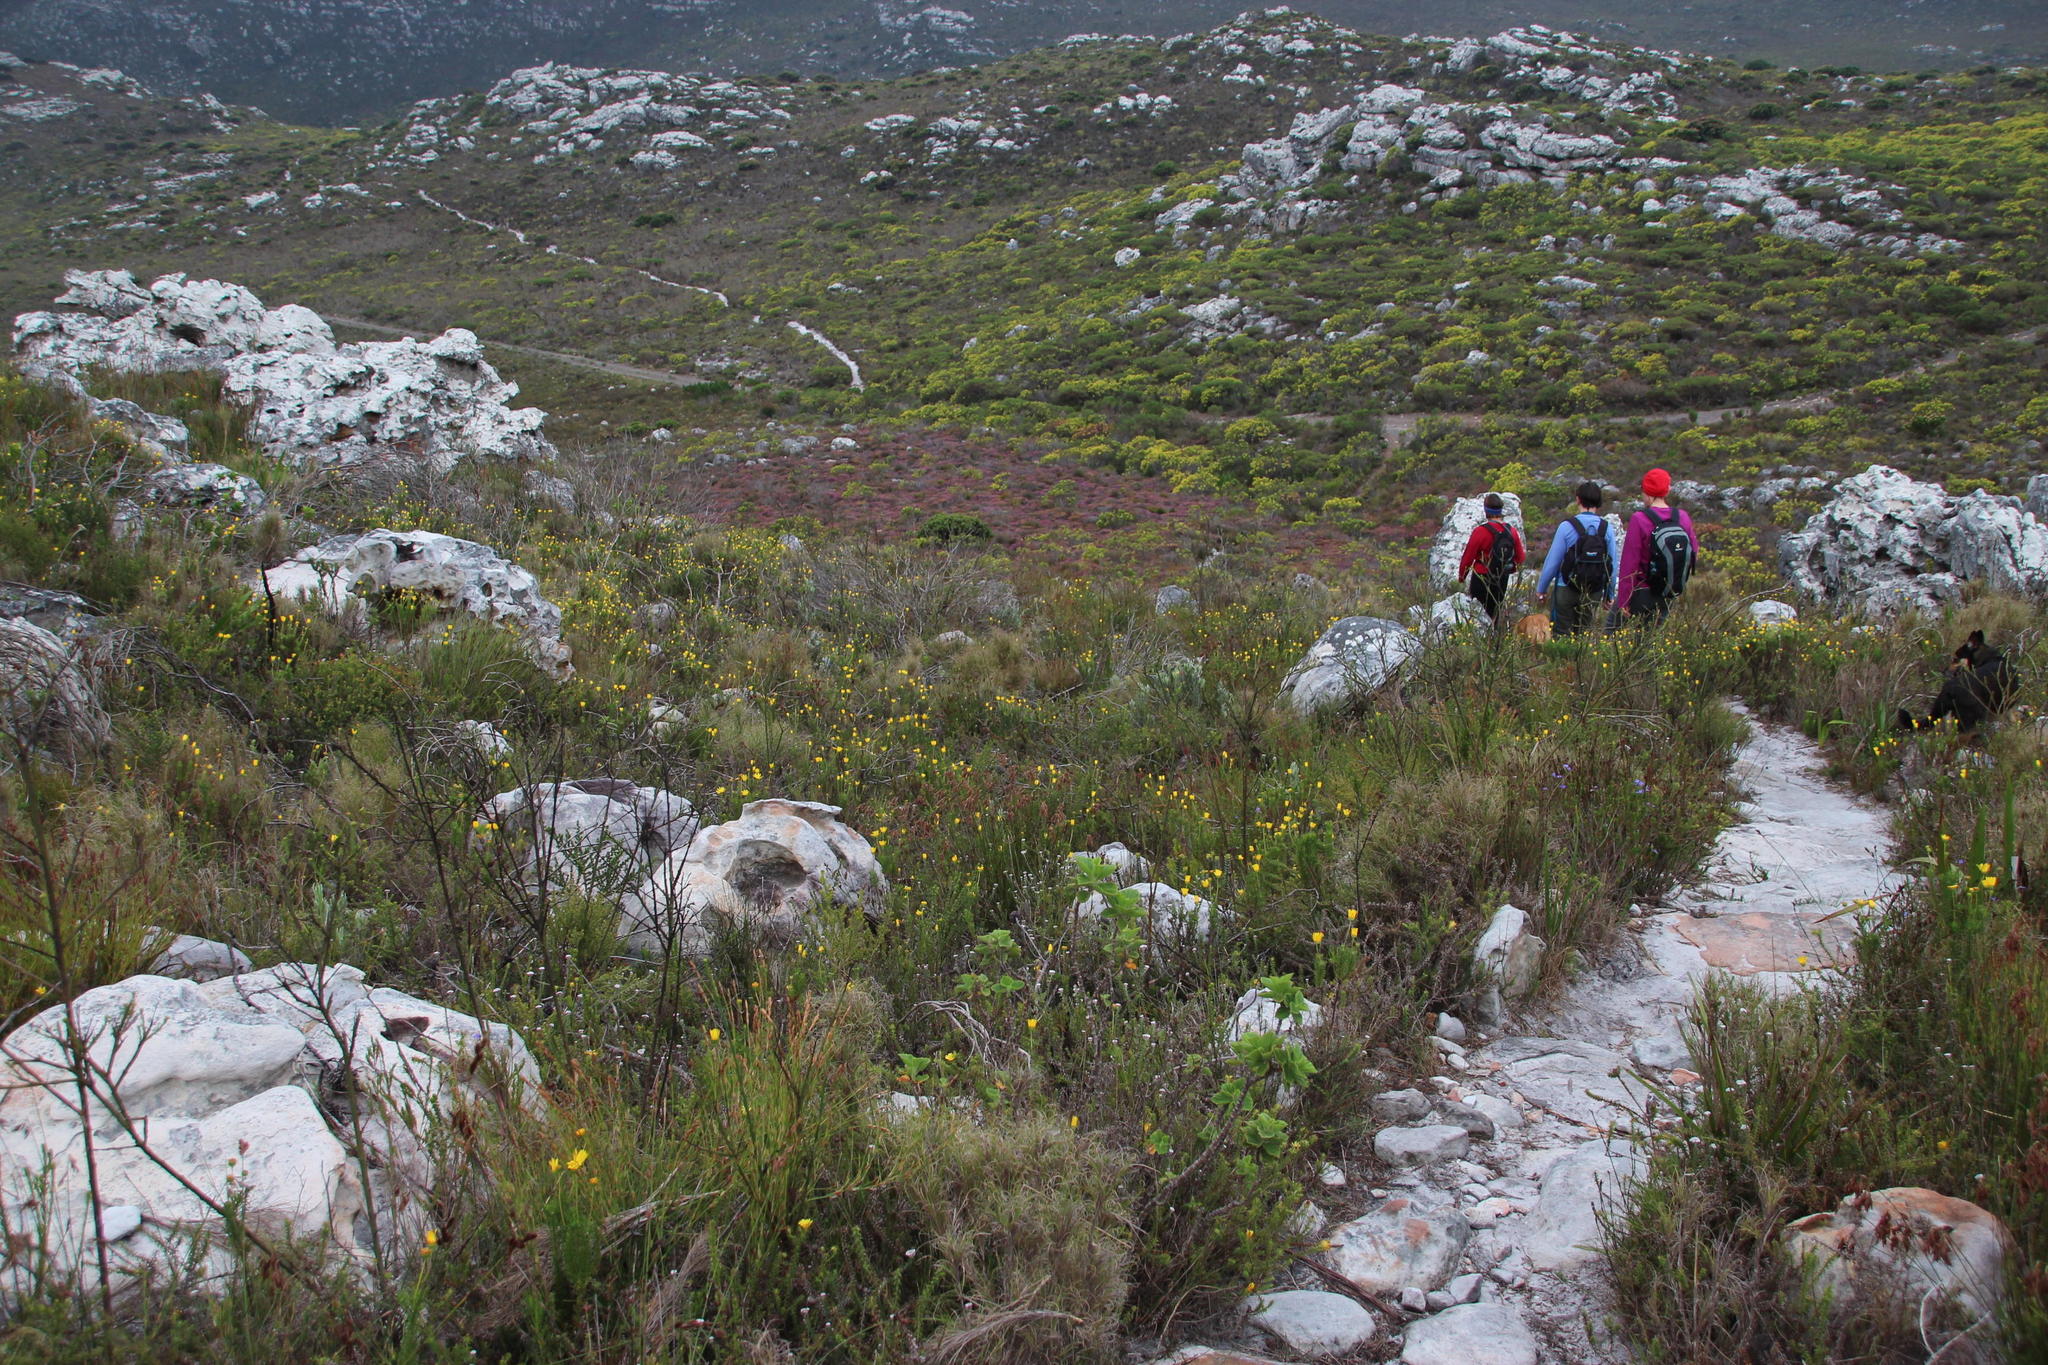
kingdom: Plantae
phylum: Tracheophyta
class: Magnoliopsida
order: Asterales
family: Asteraceae
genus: Euryops
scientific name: Euryops abrotanifolius
